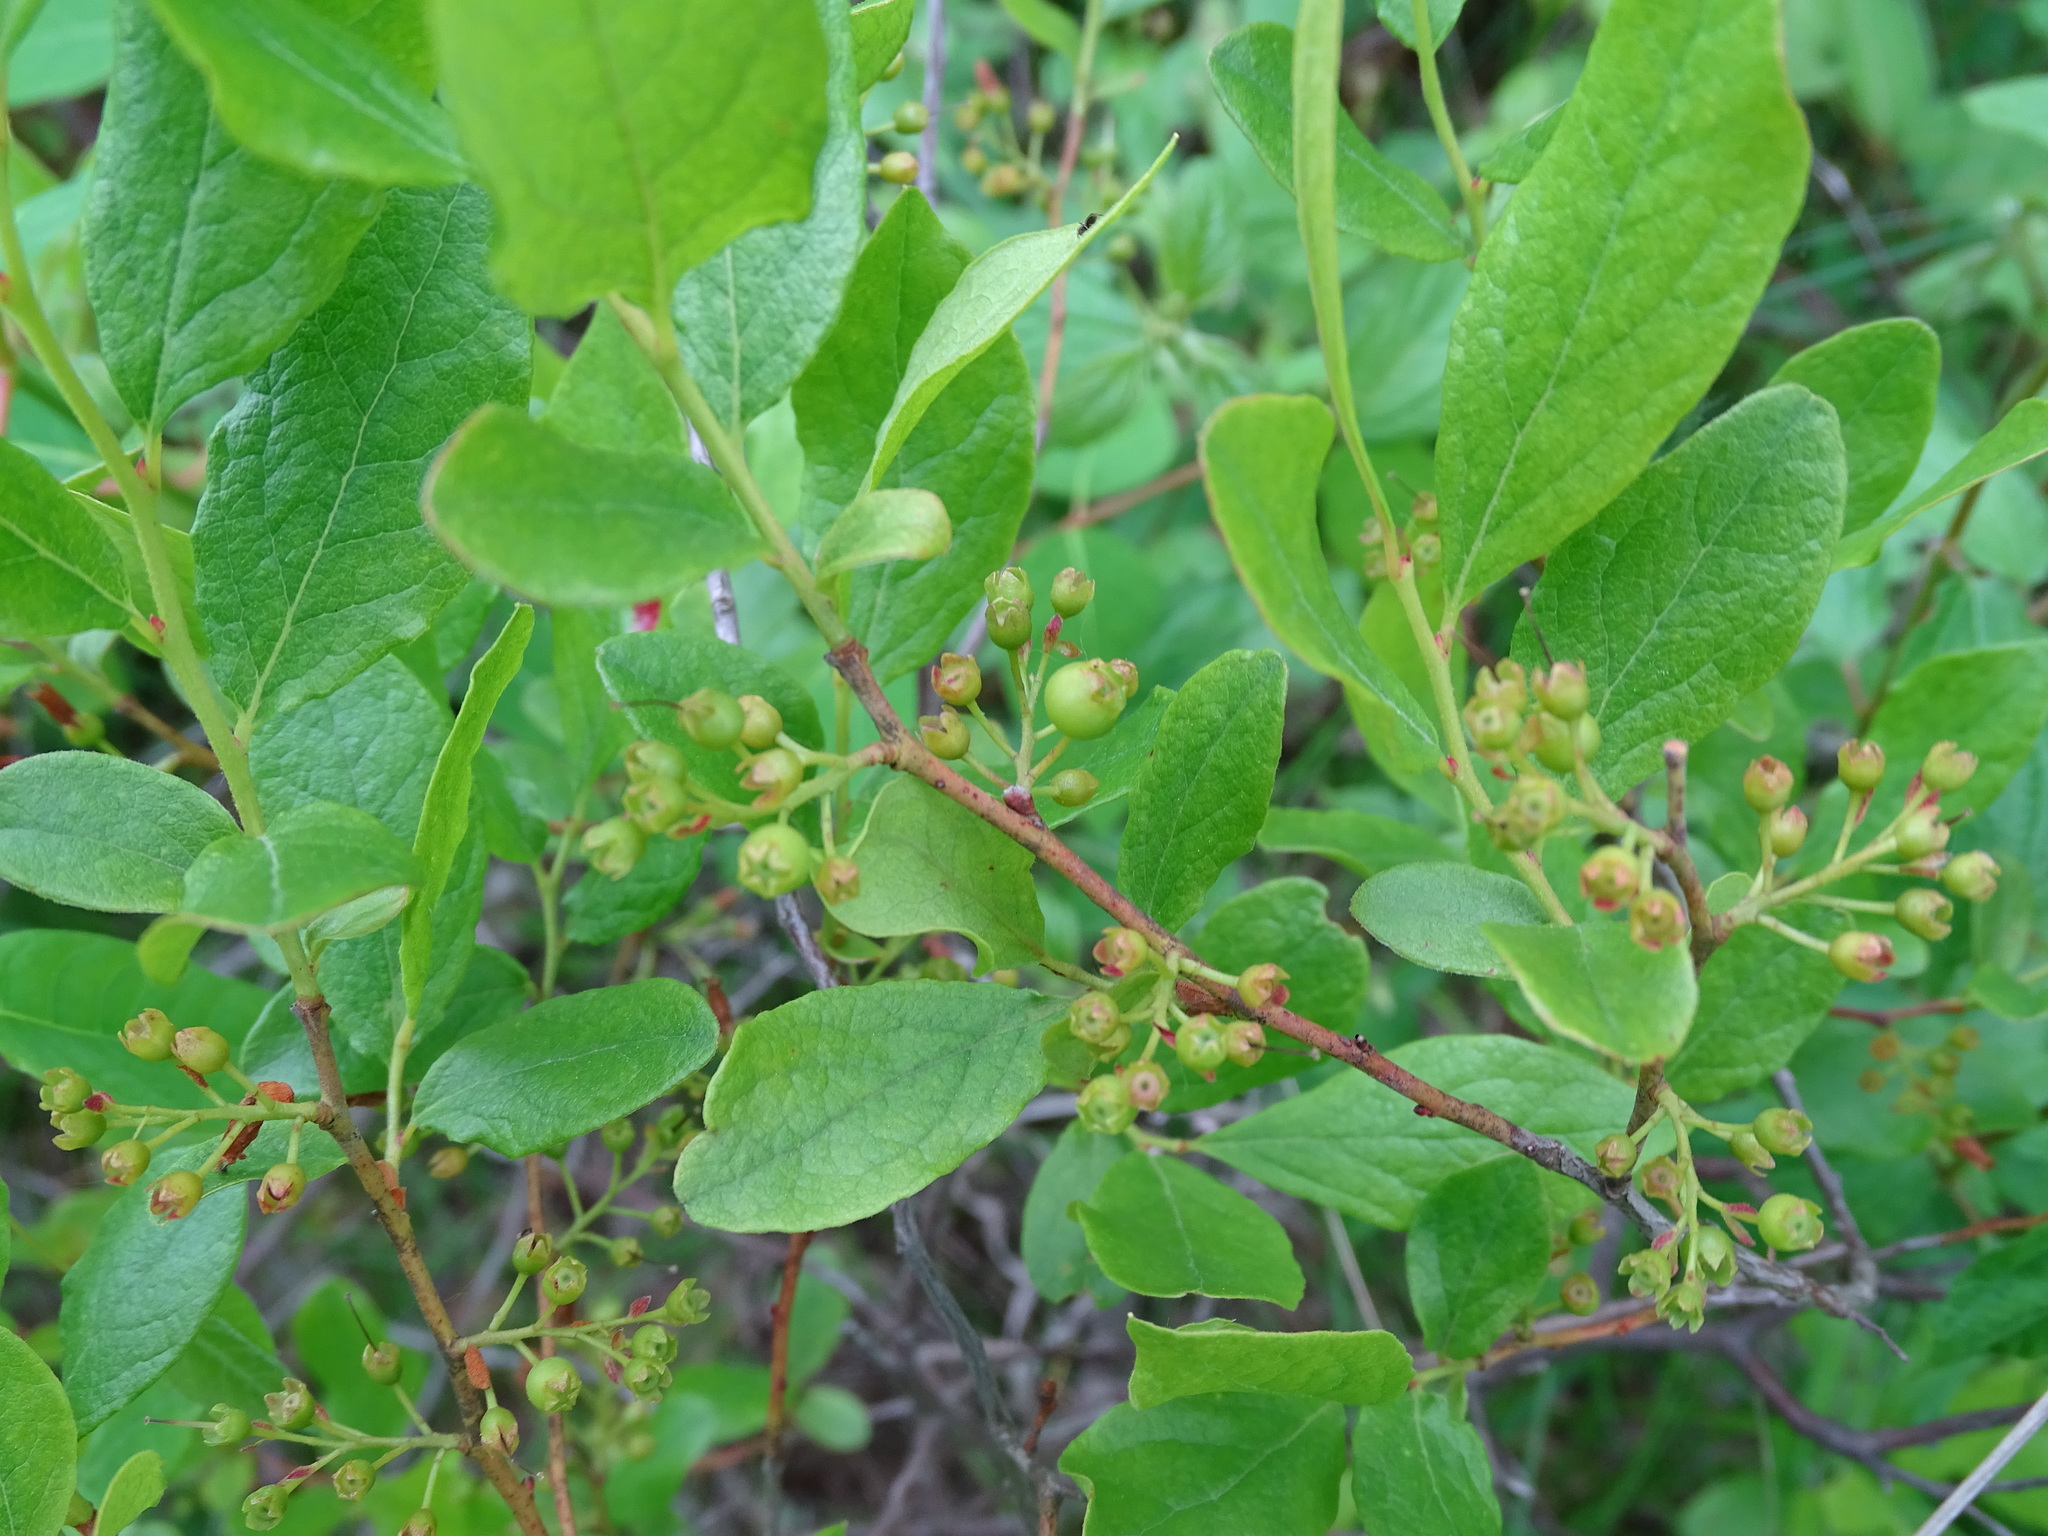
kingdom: Plantae
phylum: Tracheophyta
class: Magnoliopsida
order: Ericales
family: Ericaceae
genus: Gaylussacia
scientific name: Gaylussacia baccata
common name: Black huckleberry
